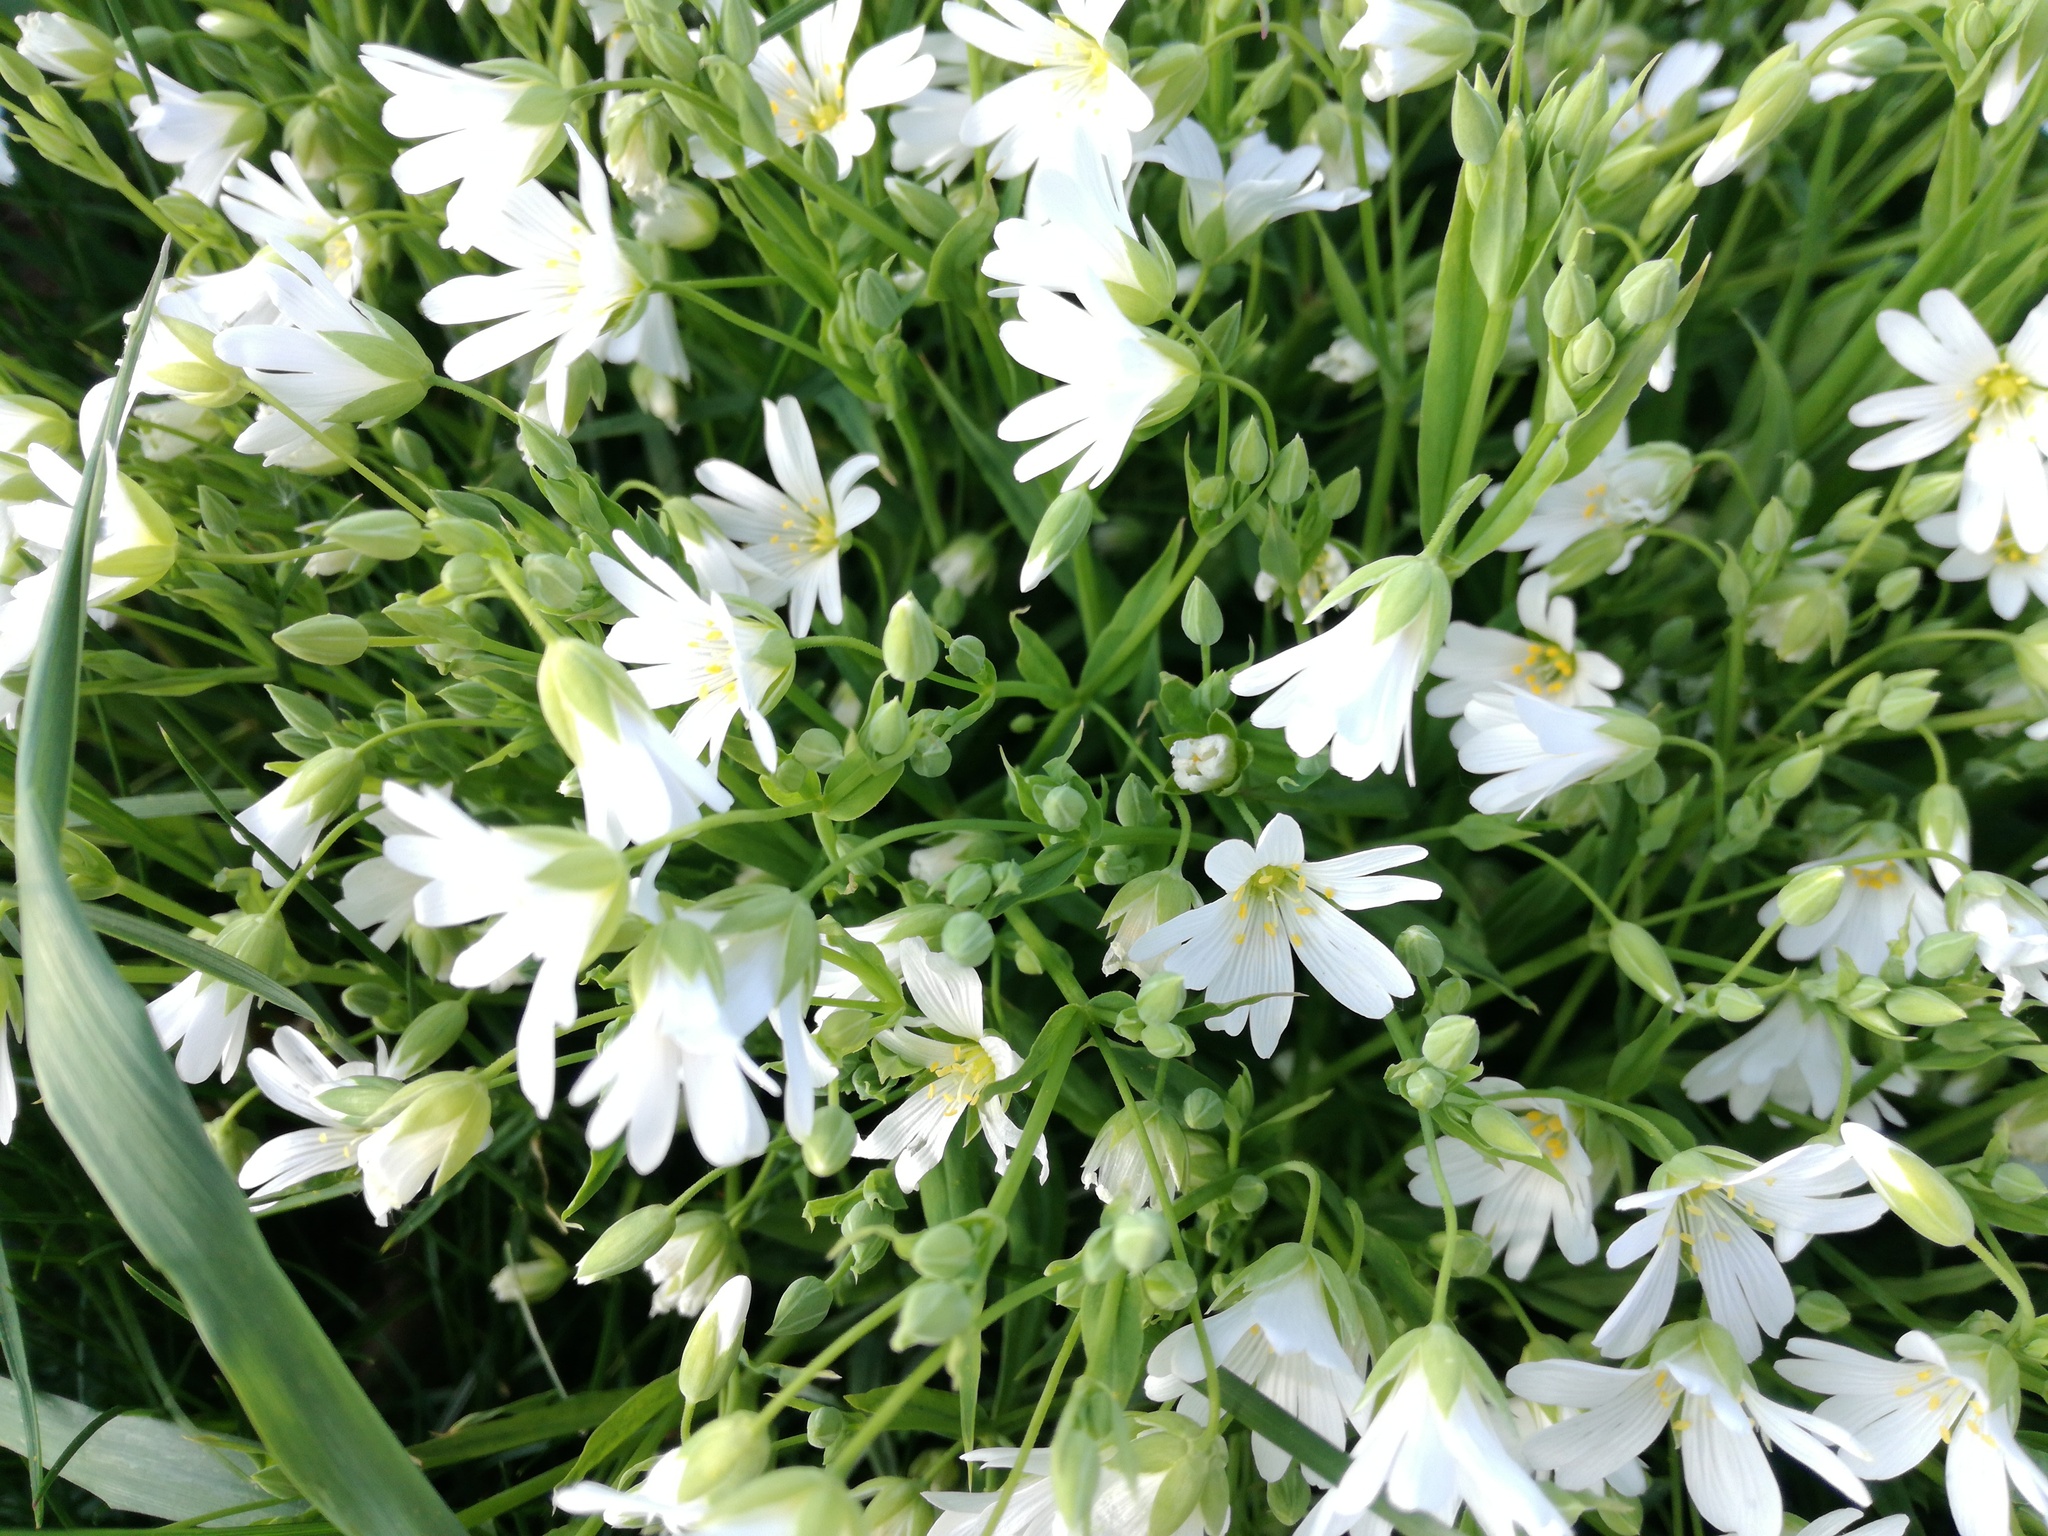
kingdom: Plantae
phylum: Tracheophyta
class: Magnoliopsida
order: Caryophyllales
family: Caryophyllaceae
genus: Rabelera
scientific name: Rabelera holostea
